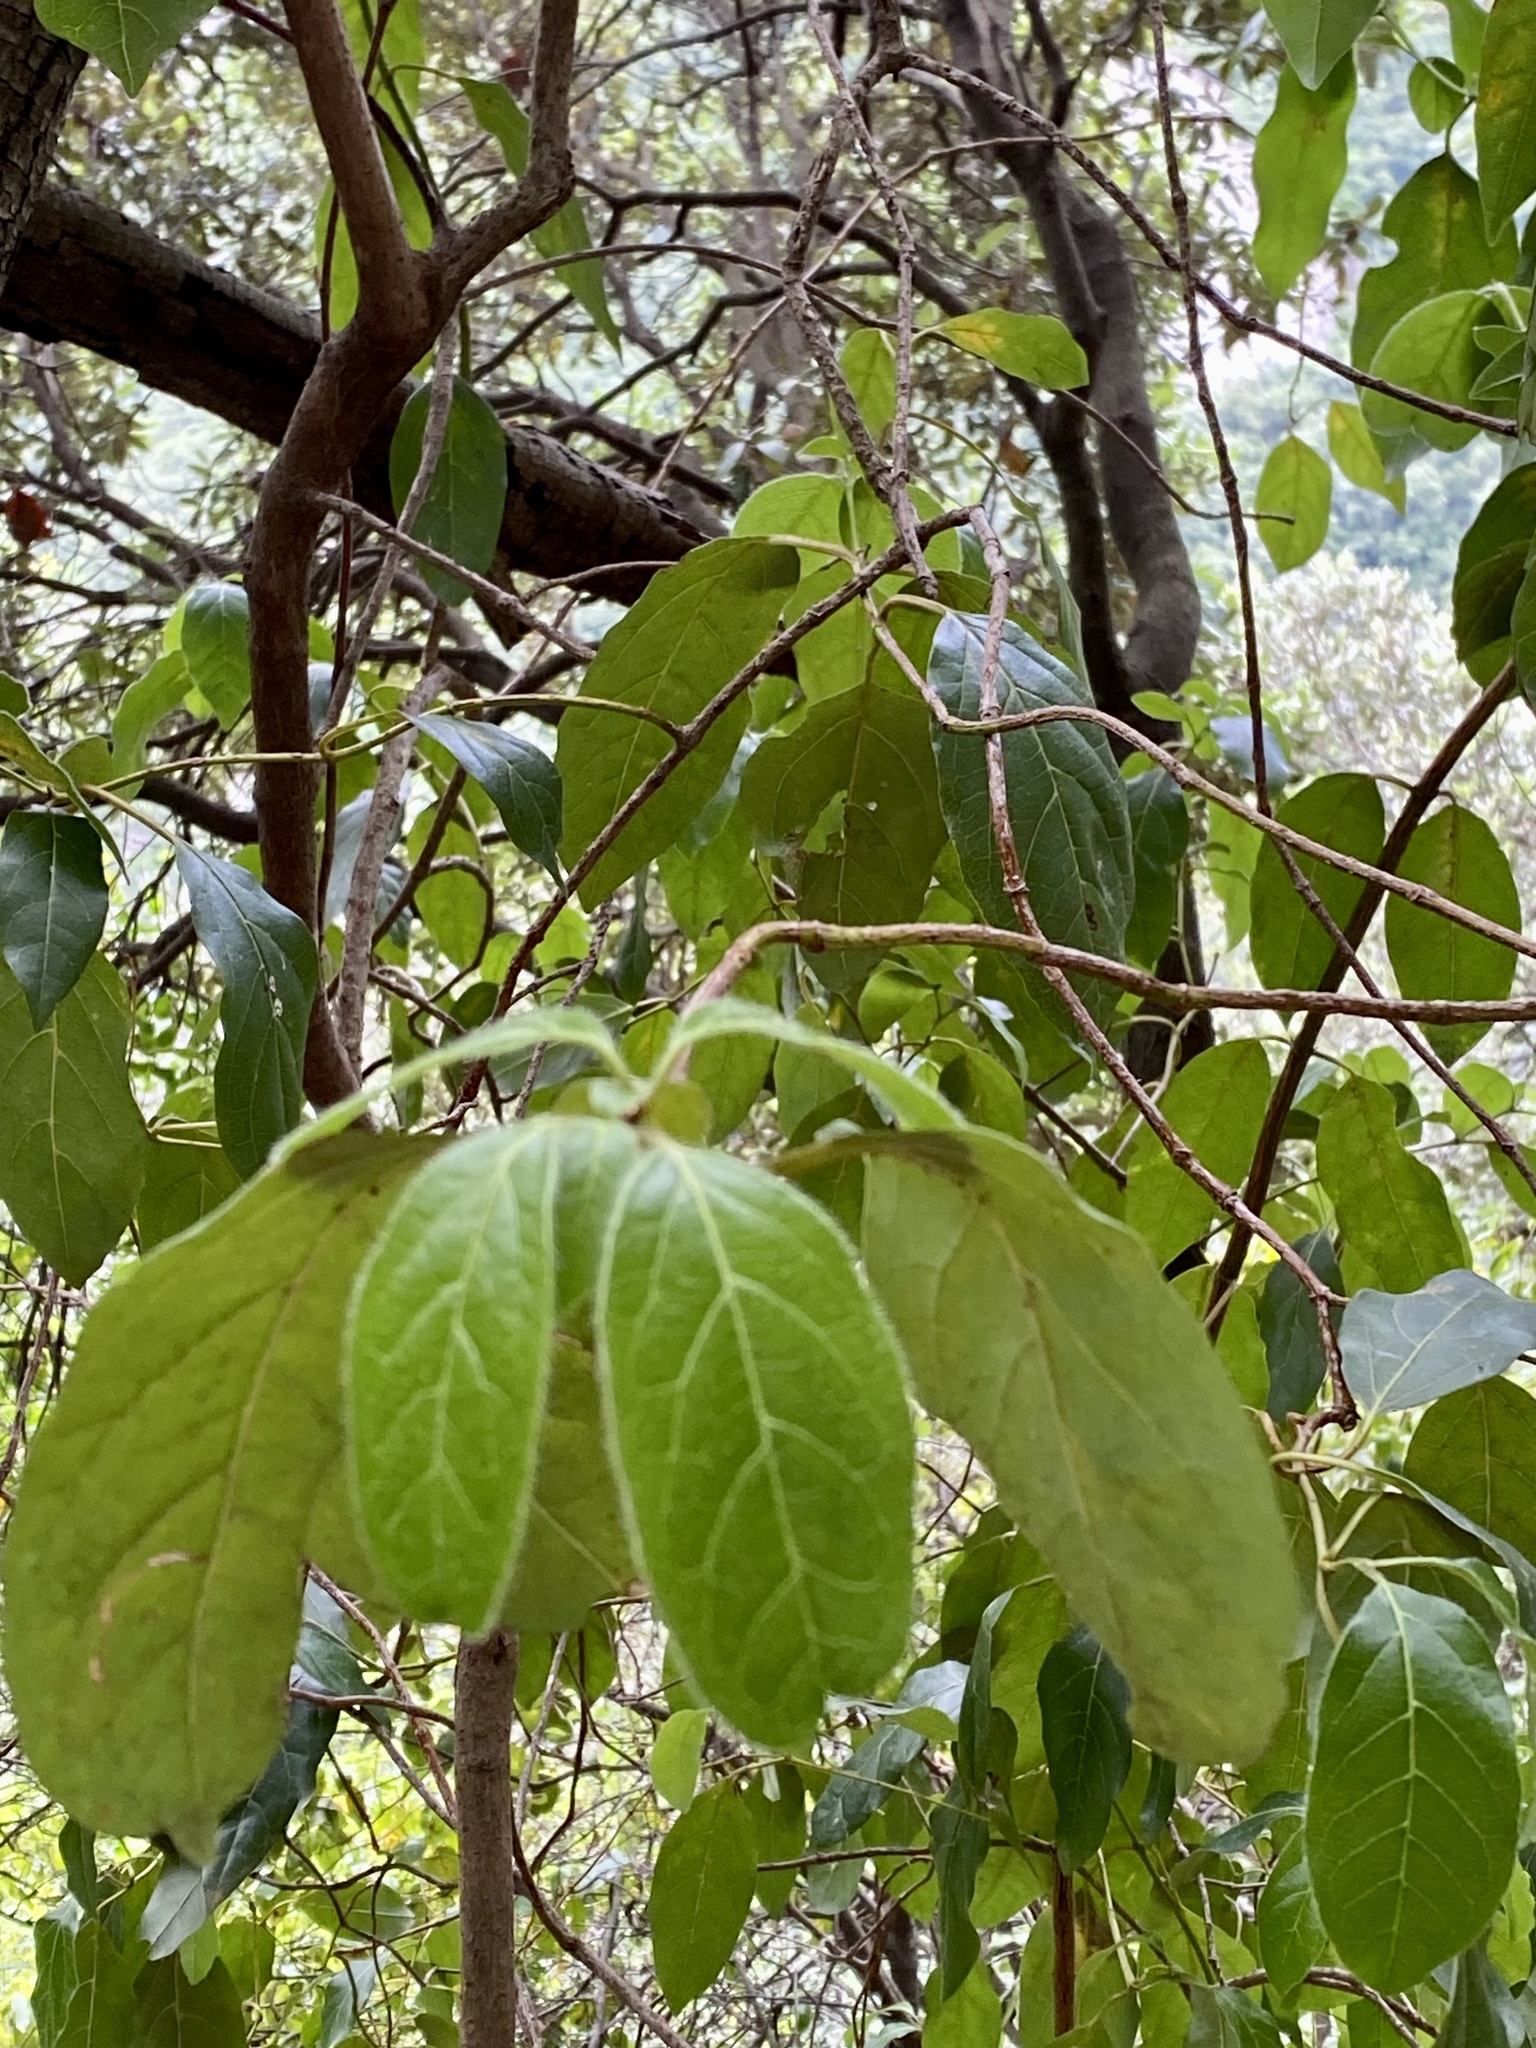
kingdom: Plantae
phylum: Tracheophyta
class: Magnoliopsida
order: Dipsacales
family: Viburnaceae
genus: Viburnum
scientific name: Viburnum tinus
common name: Laurustinus
